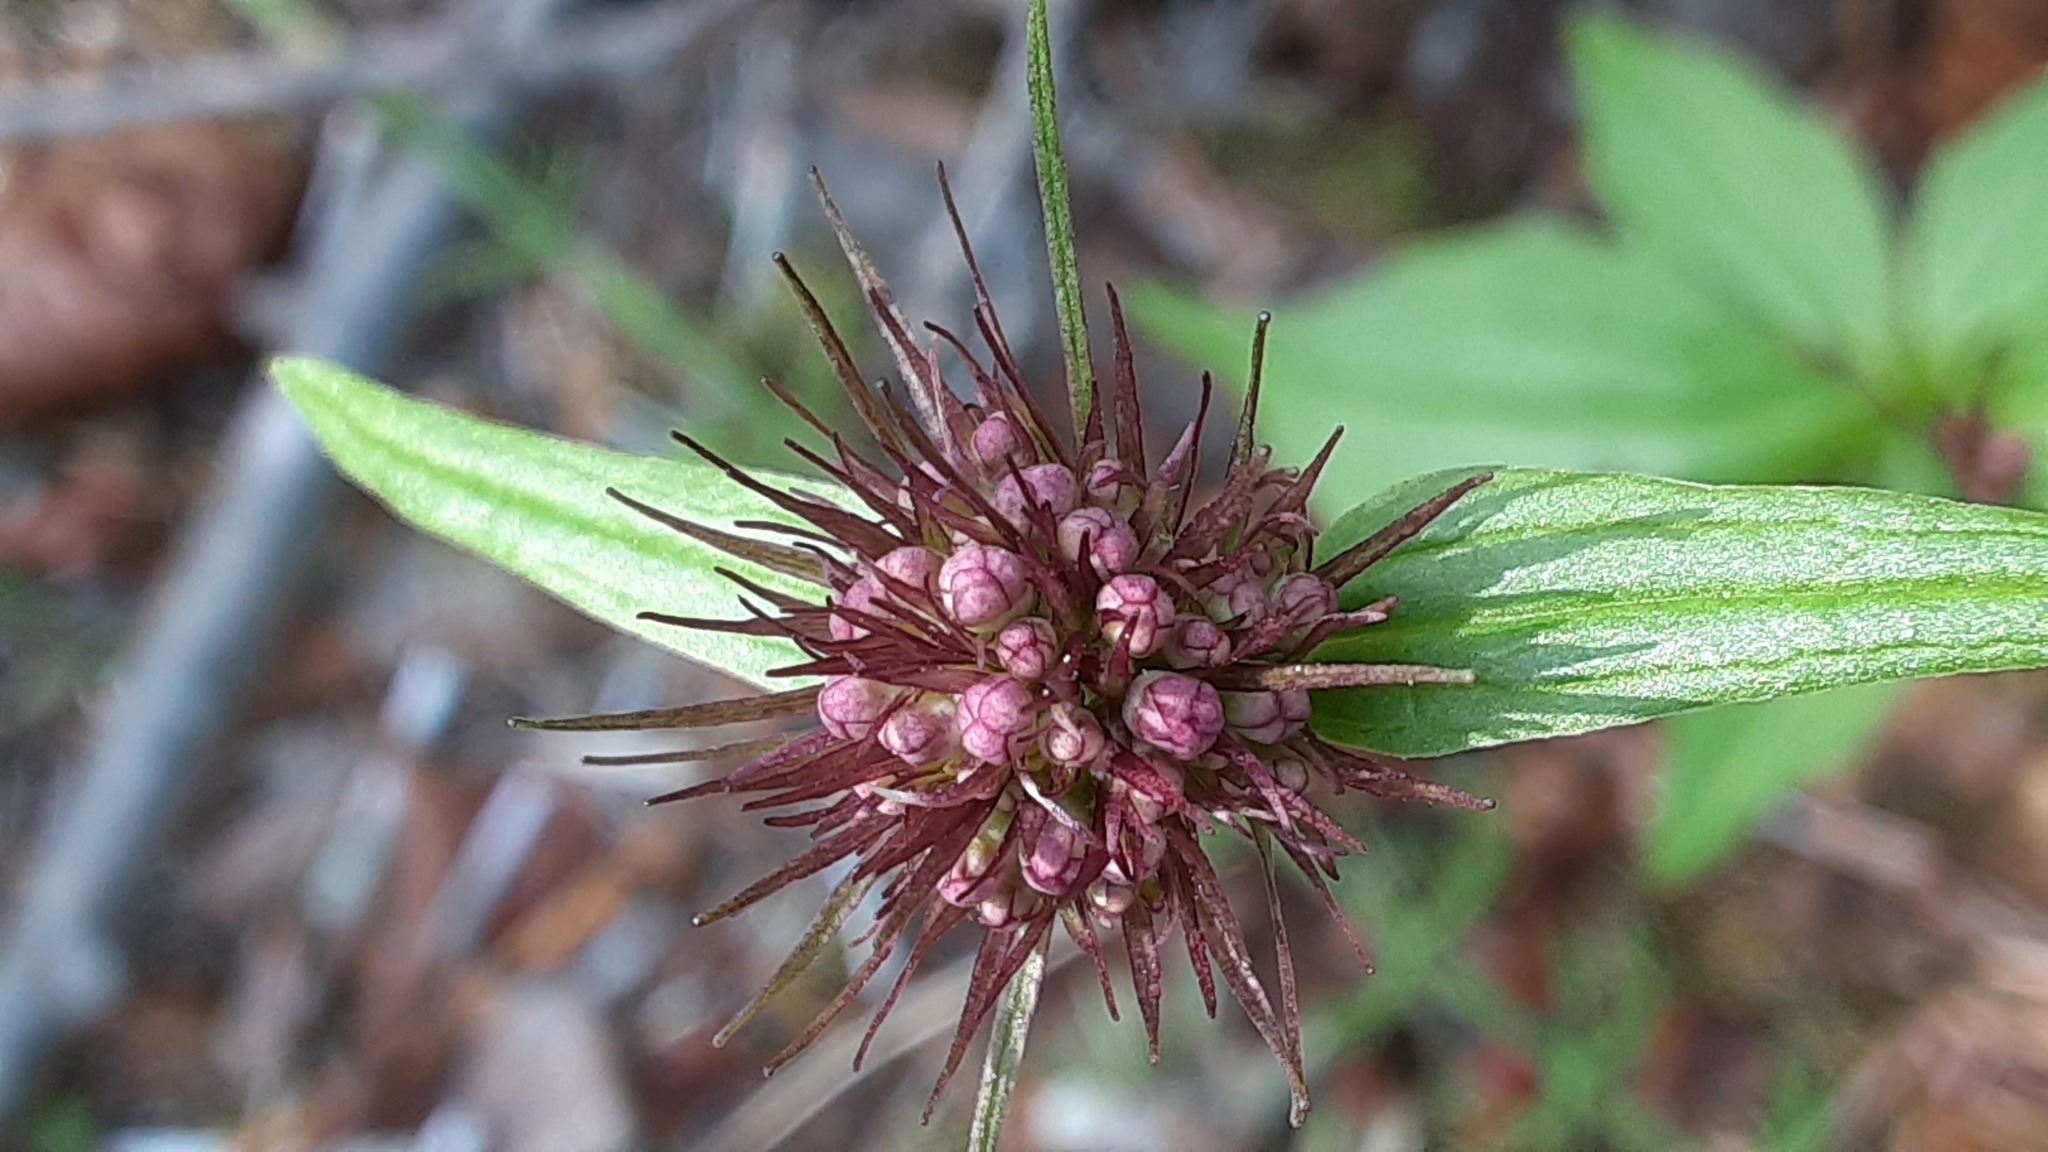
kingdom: Plantae
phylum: Tracheophyta
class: Magnoliopsida
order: Dipsacales
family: Caprifoliaceae
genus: Valeriana
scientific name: Valeriana capitata
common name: Capitate valerian
